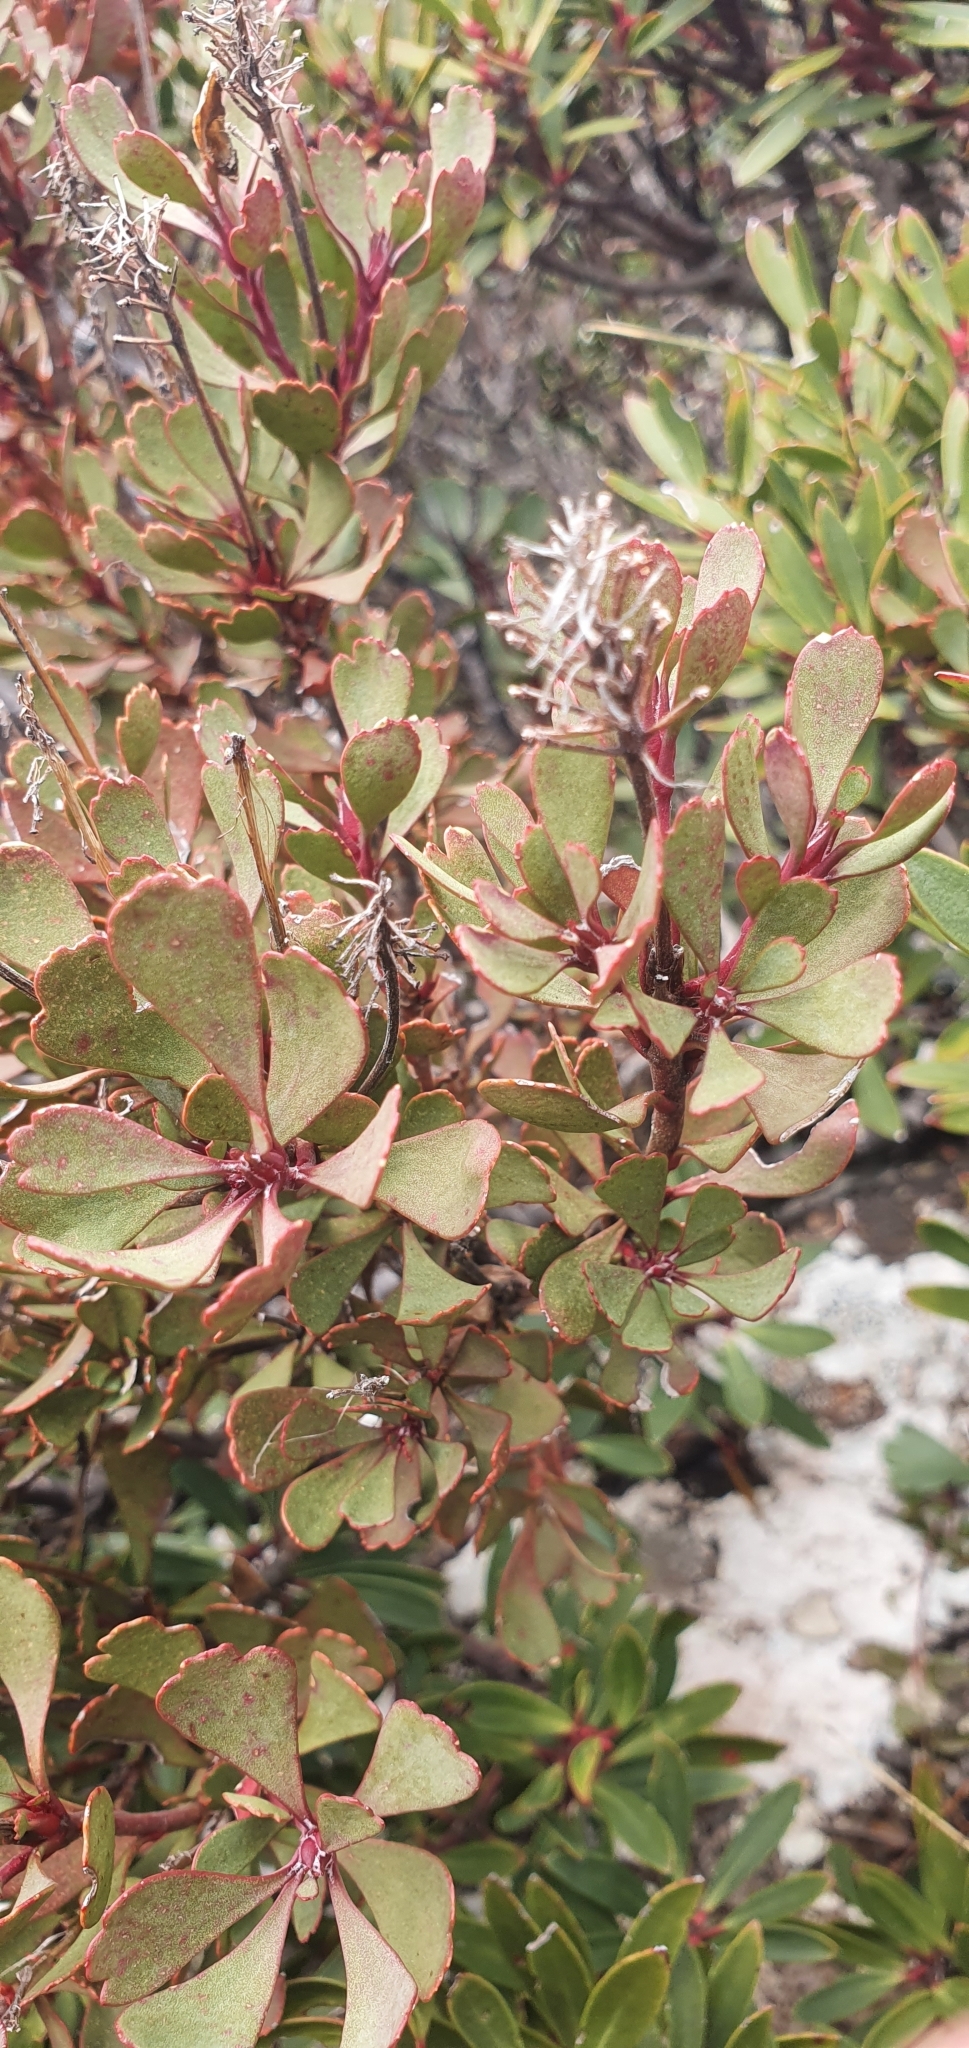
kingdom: Plantae
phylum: Tracheophyta
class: Magnoliopsida
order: Proteales
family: Proteaceae
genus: Bellendena
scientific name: Bellendena montana
